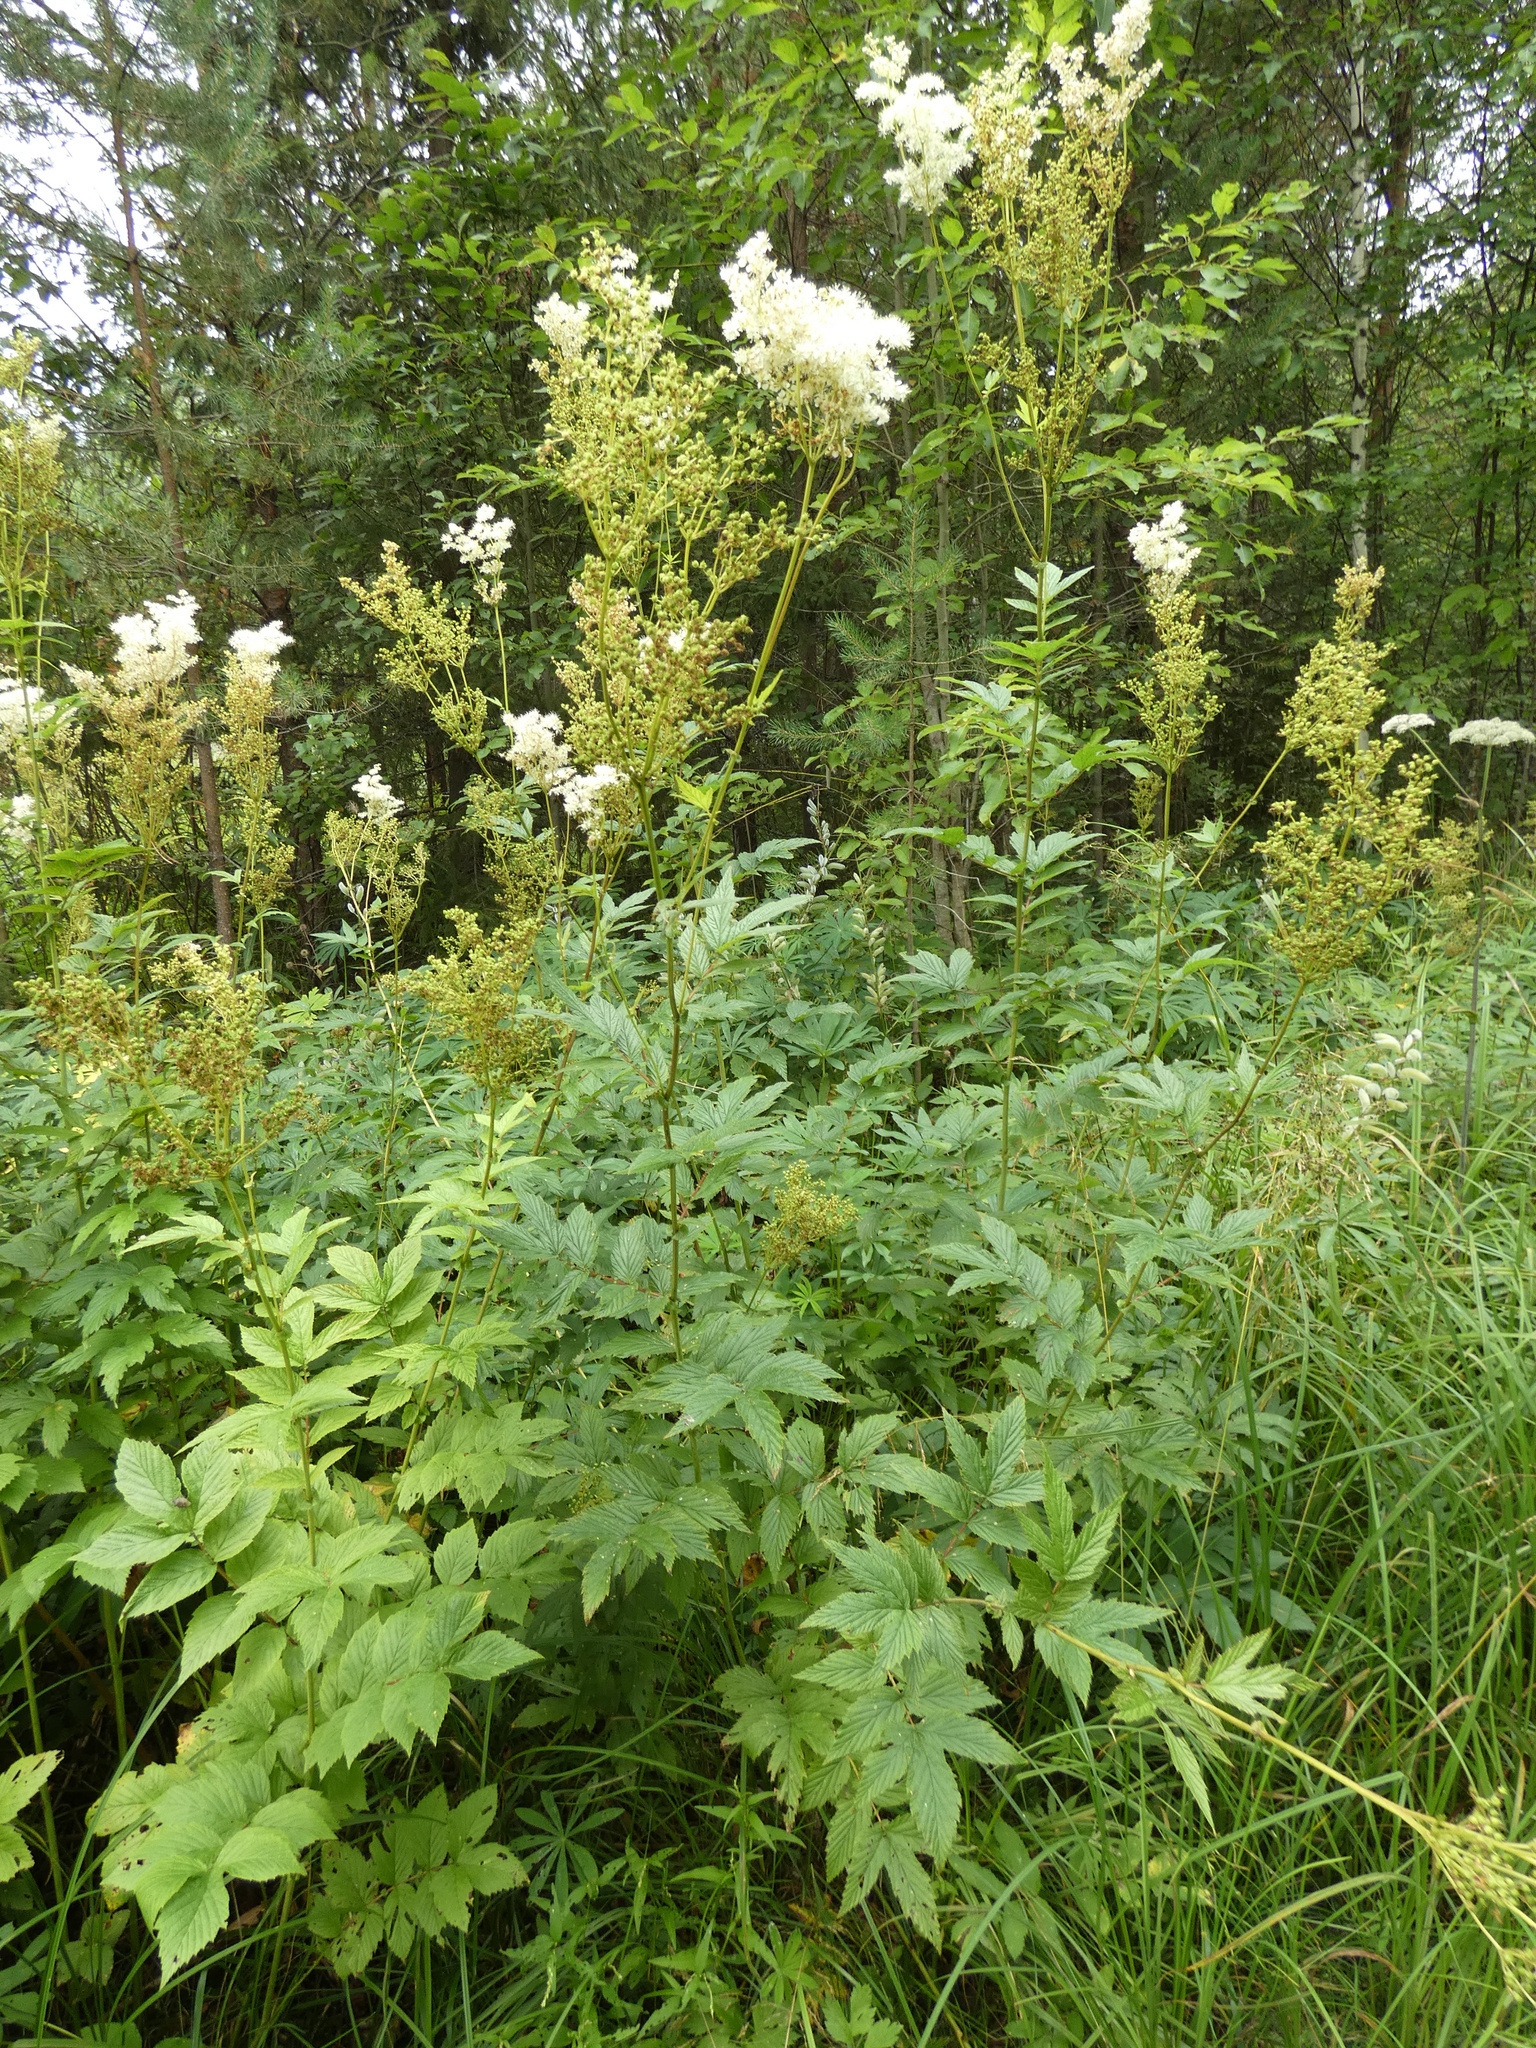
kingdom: Plantae
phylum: Tracheophyta
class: Magnoliopsida
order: Rosales
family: Rosaceae
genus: Filipendula
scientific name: Filipendula ulmaria
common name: Meadowsweet
